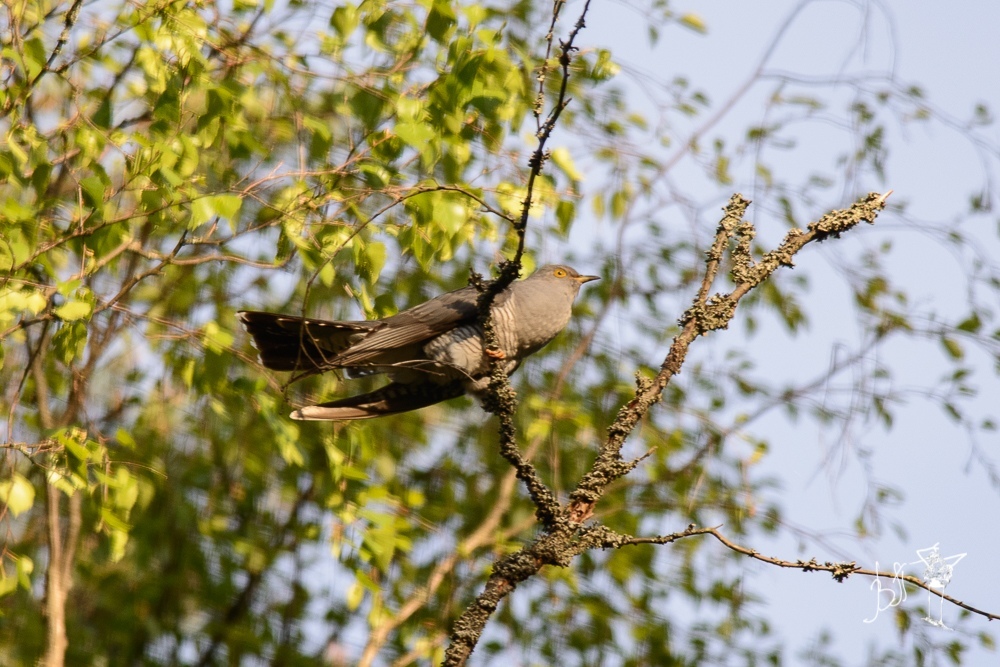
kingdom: Animalia
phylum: Chordata
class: Aves
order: Cuculiformes
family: Cuculidae
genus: Cuculus
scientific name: Cuculus canorus
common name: Common cuckoo
